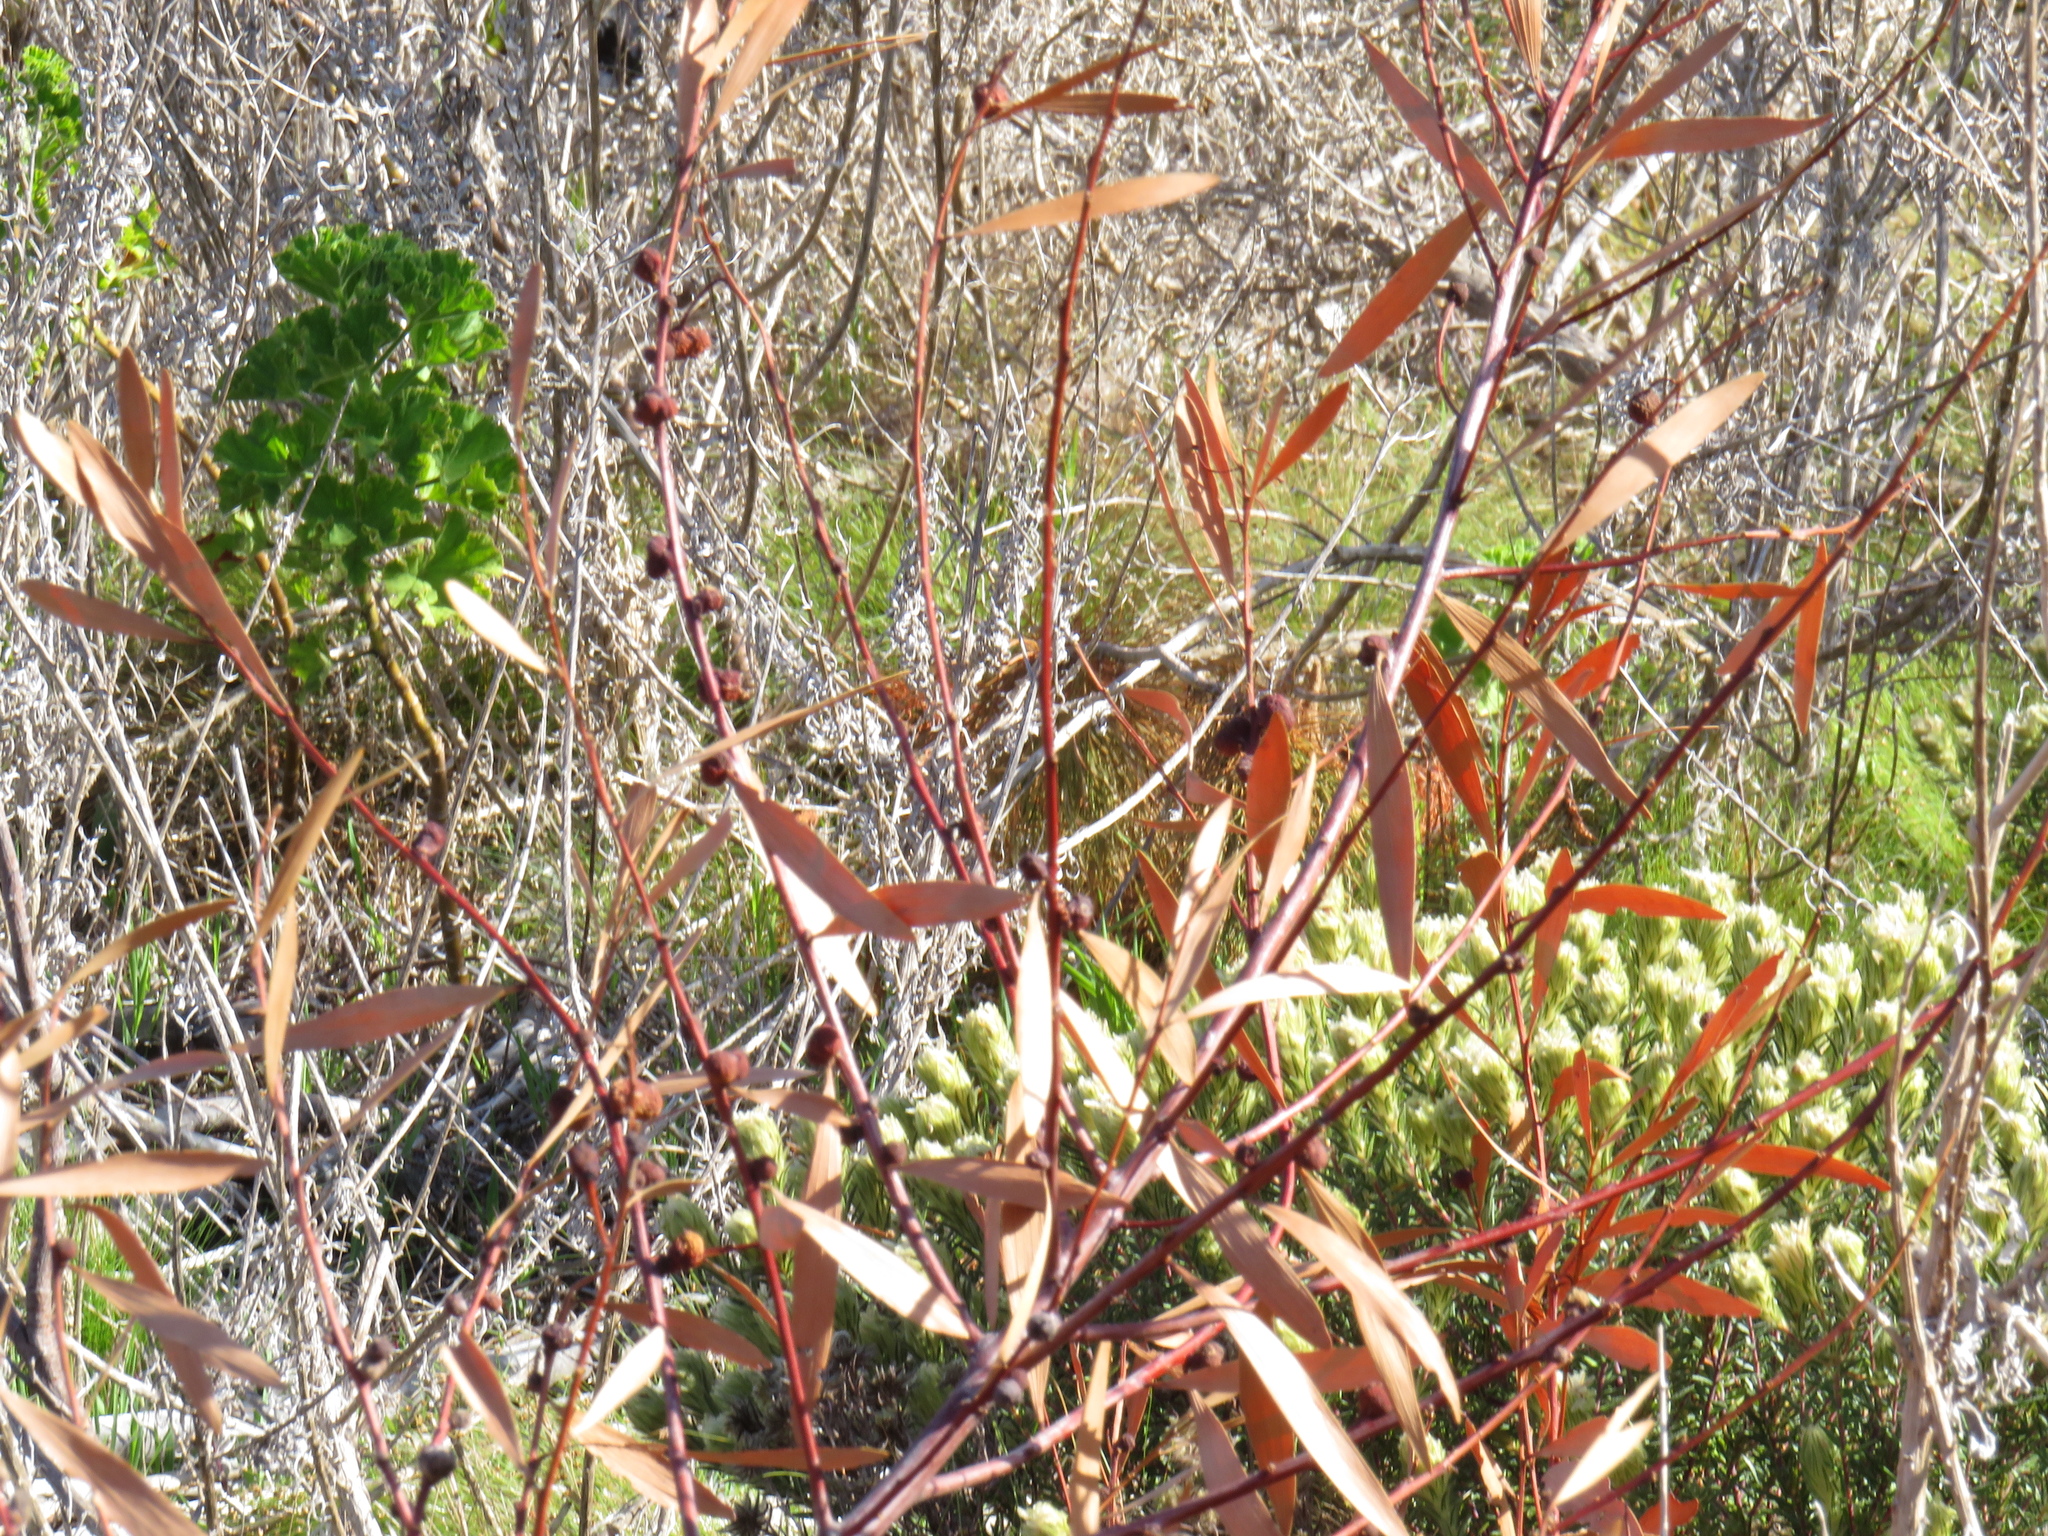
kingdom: Animalia
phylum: Arthropoda
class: Insecta
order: Hymenoptera
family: Pteromalidae
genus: Trichilogaster
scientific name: Trichilogaster acaciaelongifoliae
